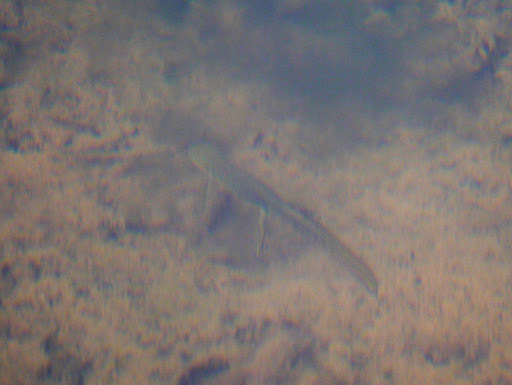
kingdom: Animalia
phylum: Chordata
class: Amphibia
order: Caudata
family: Salamandridae
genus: Notophthalmus
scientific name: Notophthalmus viridescens
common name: Eastern newt
